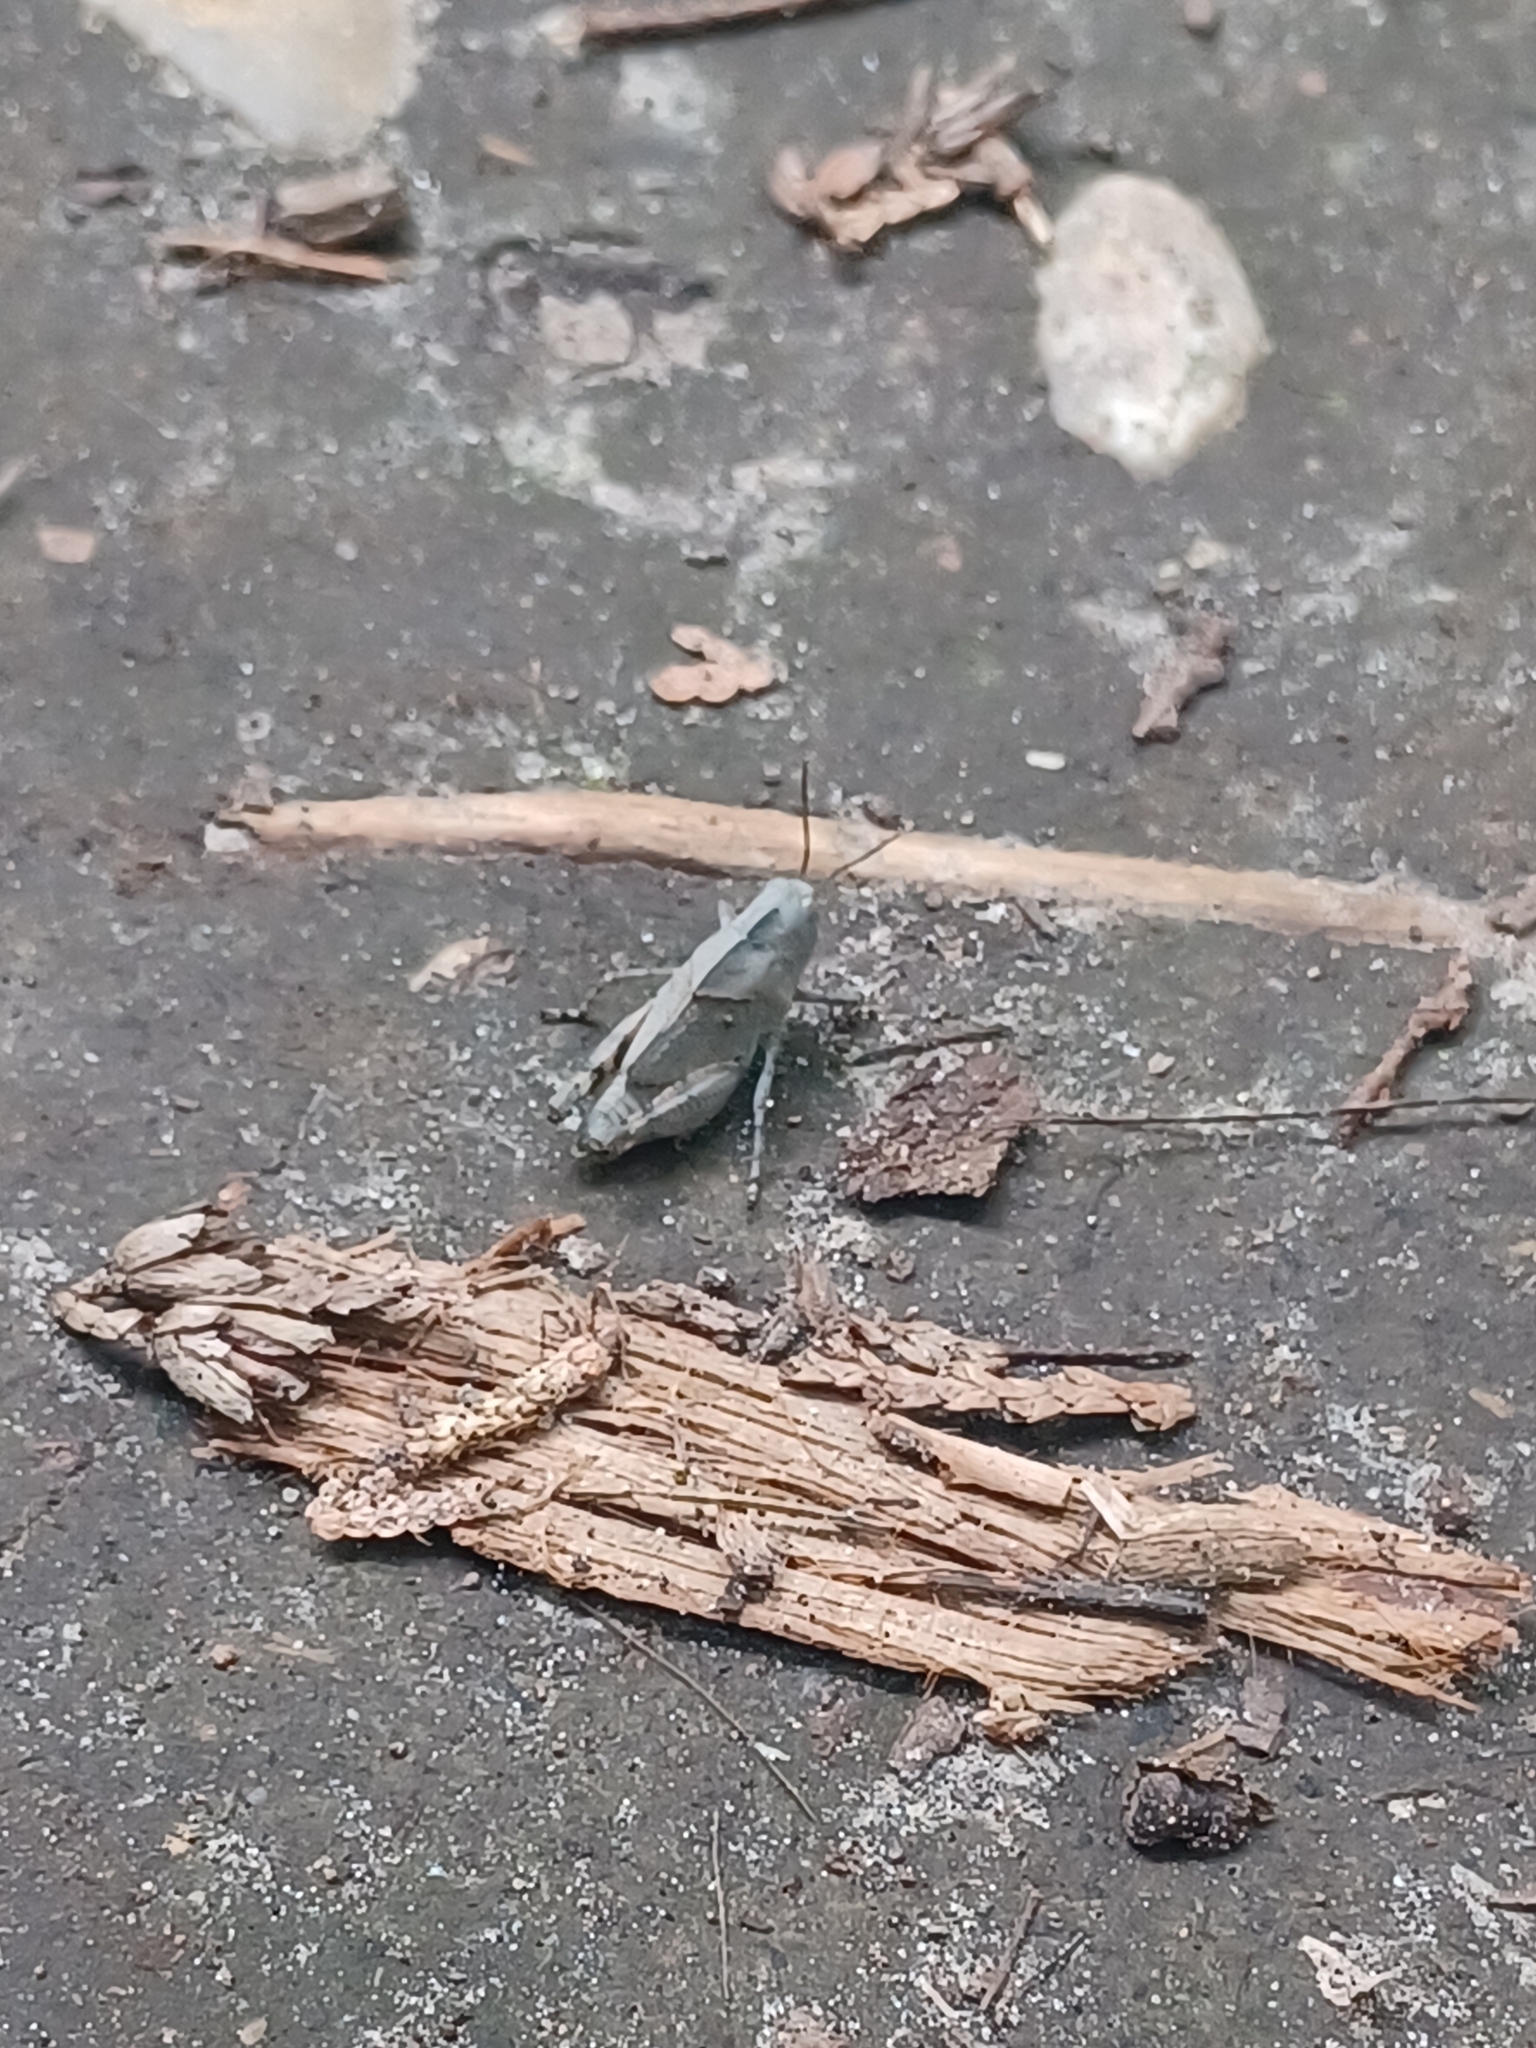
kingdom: Animalia
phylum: Arthropoda
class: Insecta
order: Orthoptera
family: Acrididae
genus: Dissosteira
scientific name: Dissosteira carolina
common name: Carolina grasshopper
